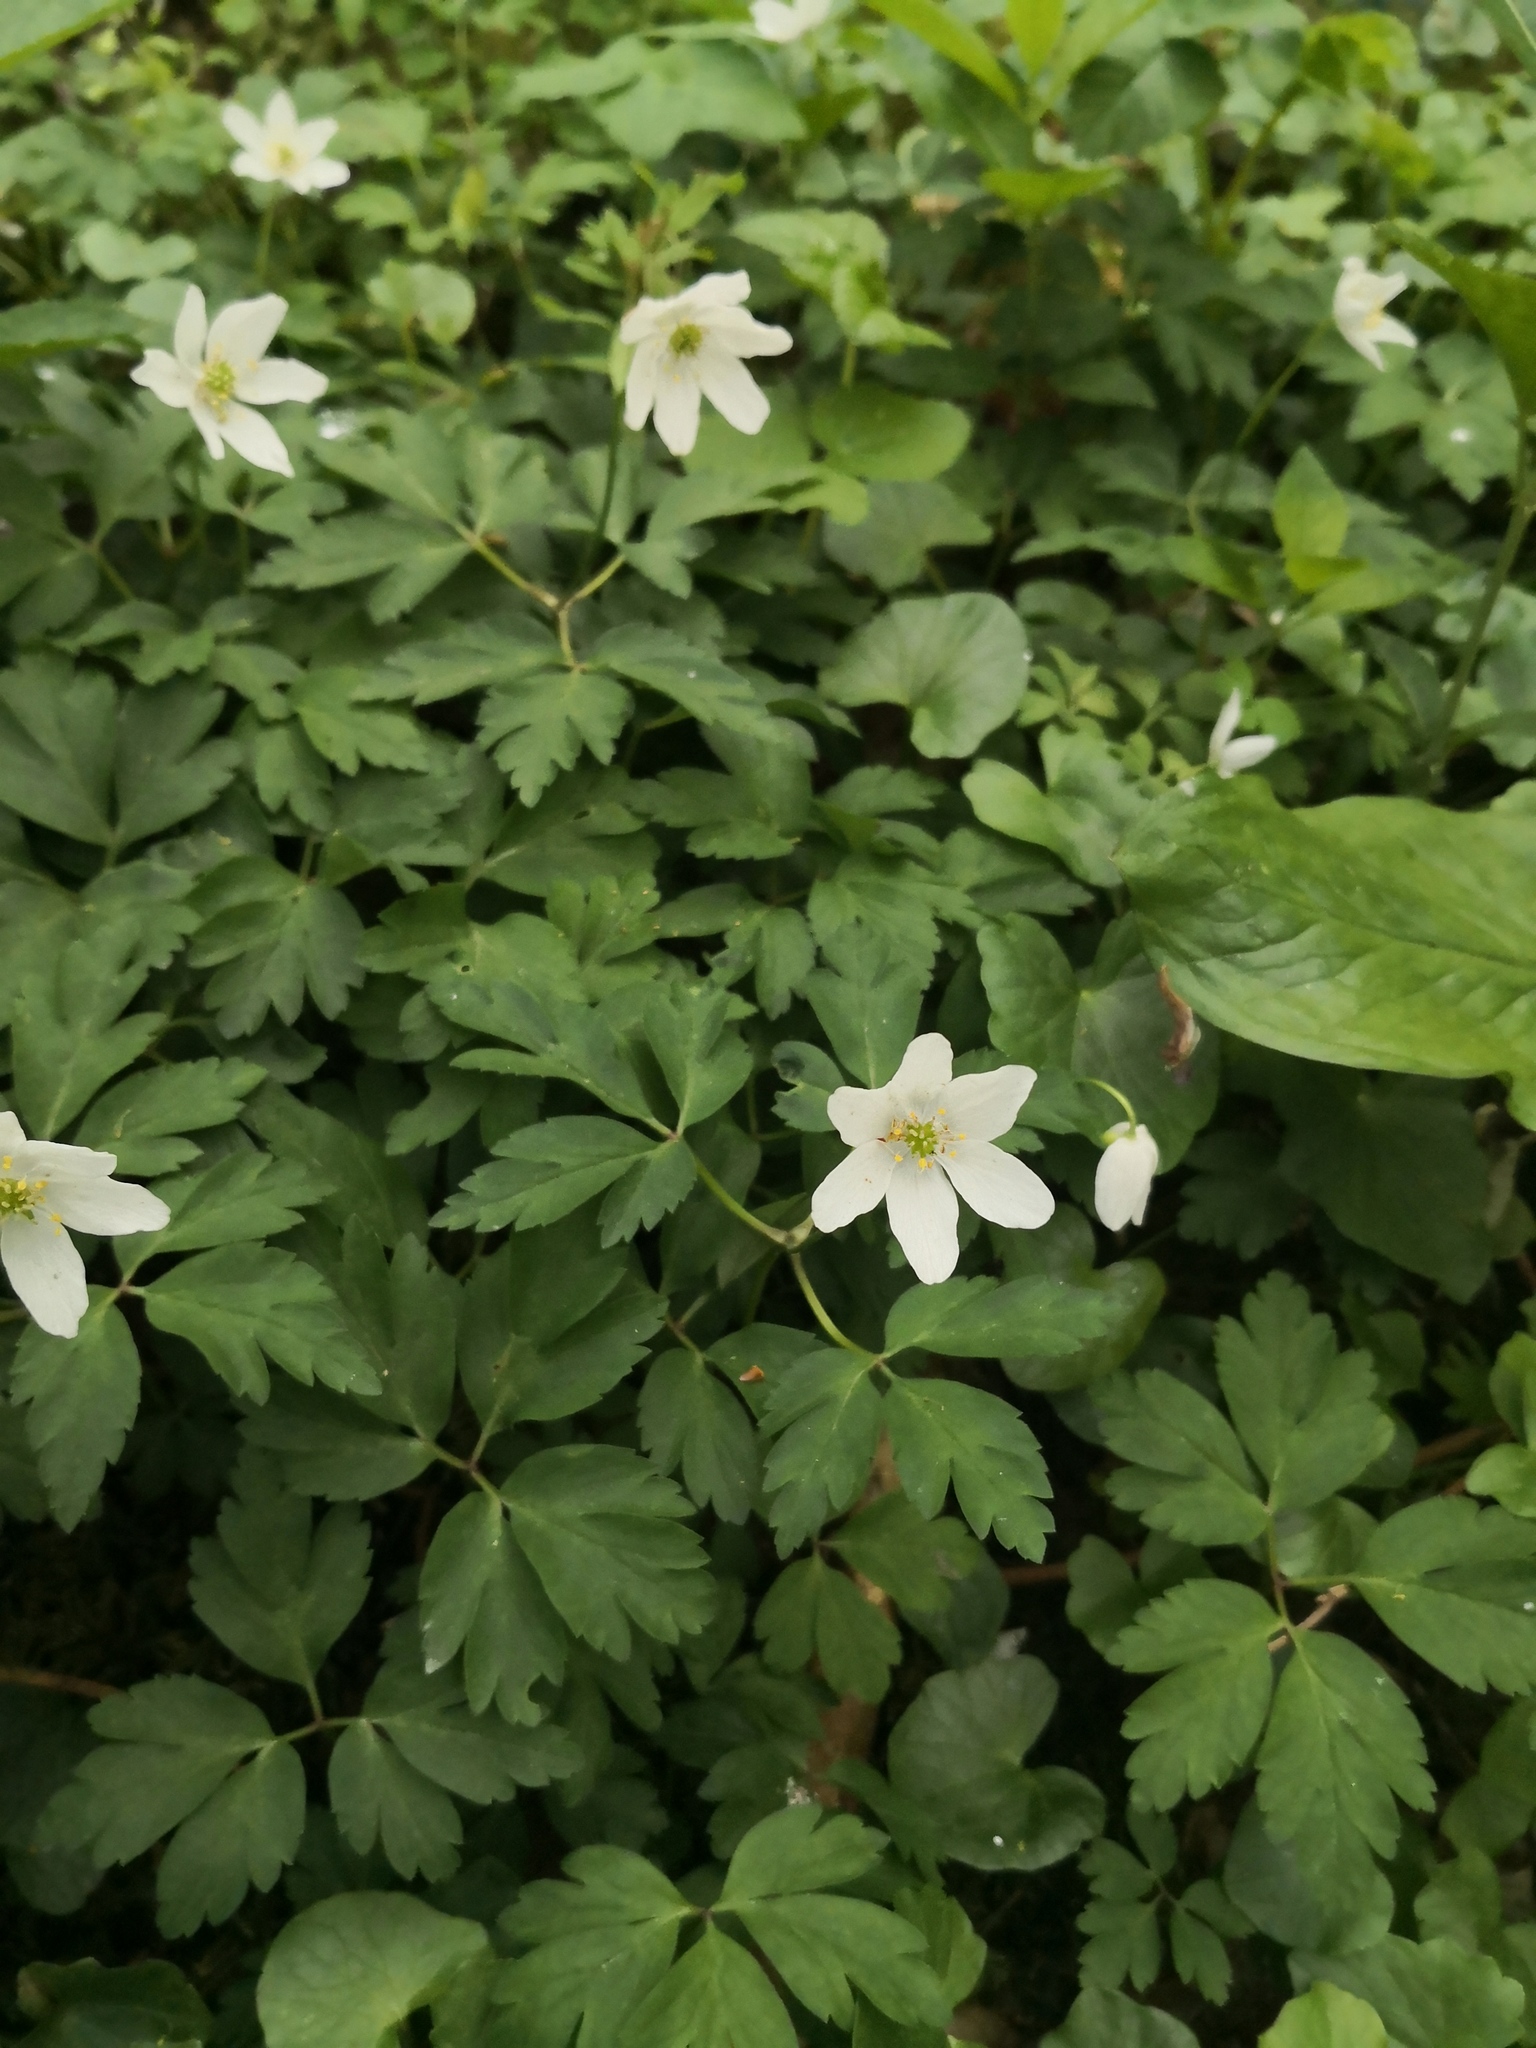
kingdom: Plantae
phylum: Tracheophyta
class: Magnoliopsida
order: Ranunculales
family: Ranunculaceae
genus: Anemone
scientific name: Anemone nemorosa
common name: Wood anemone
